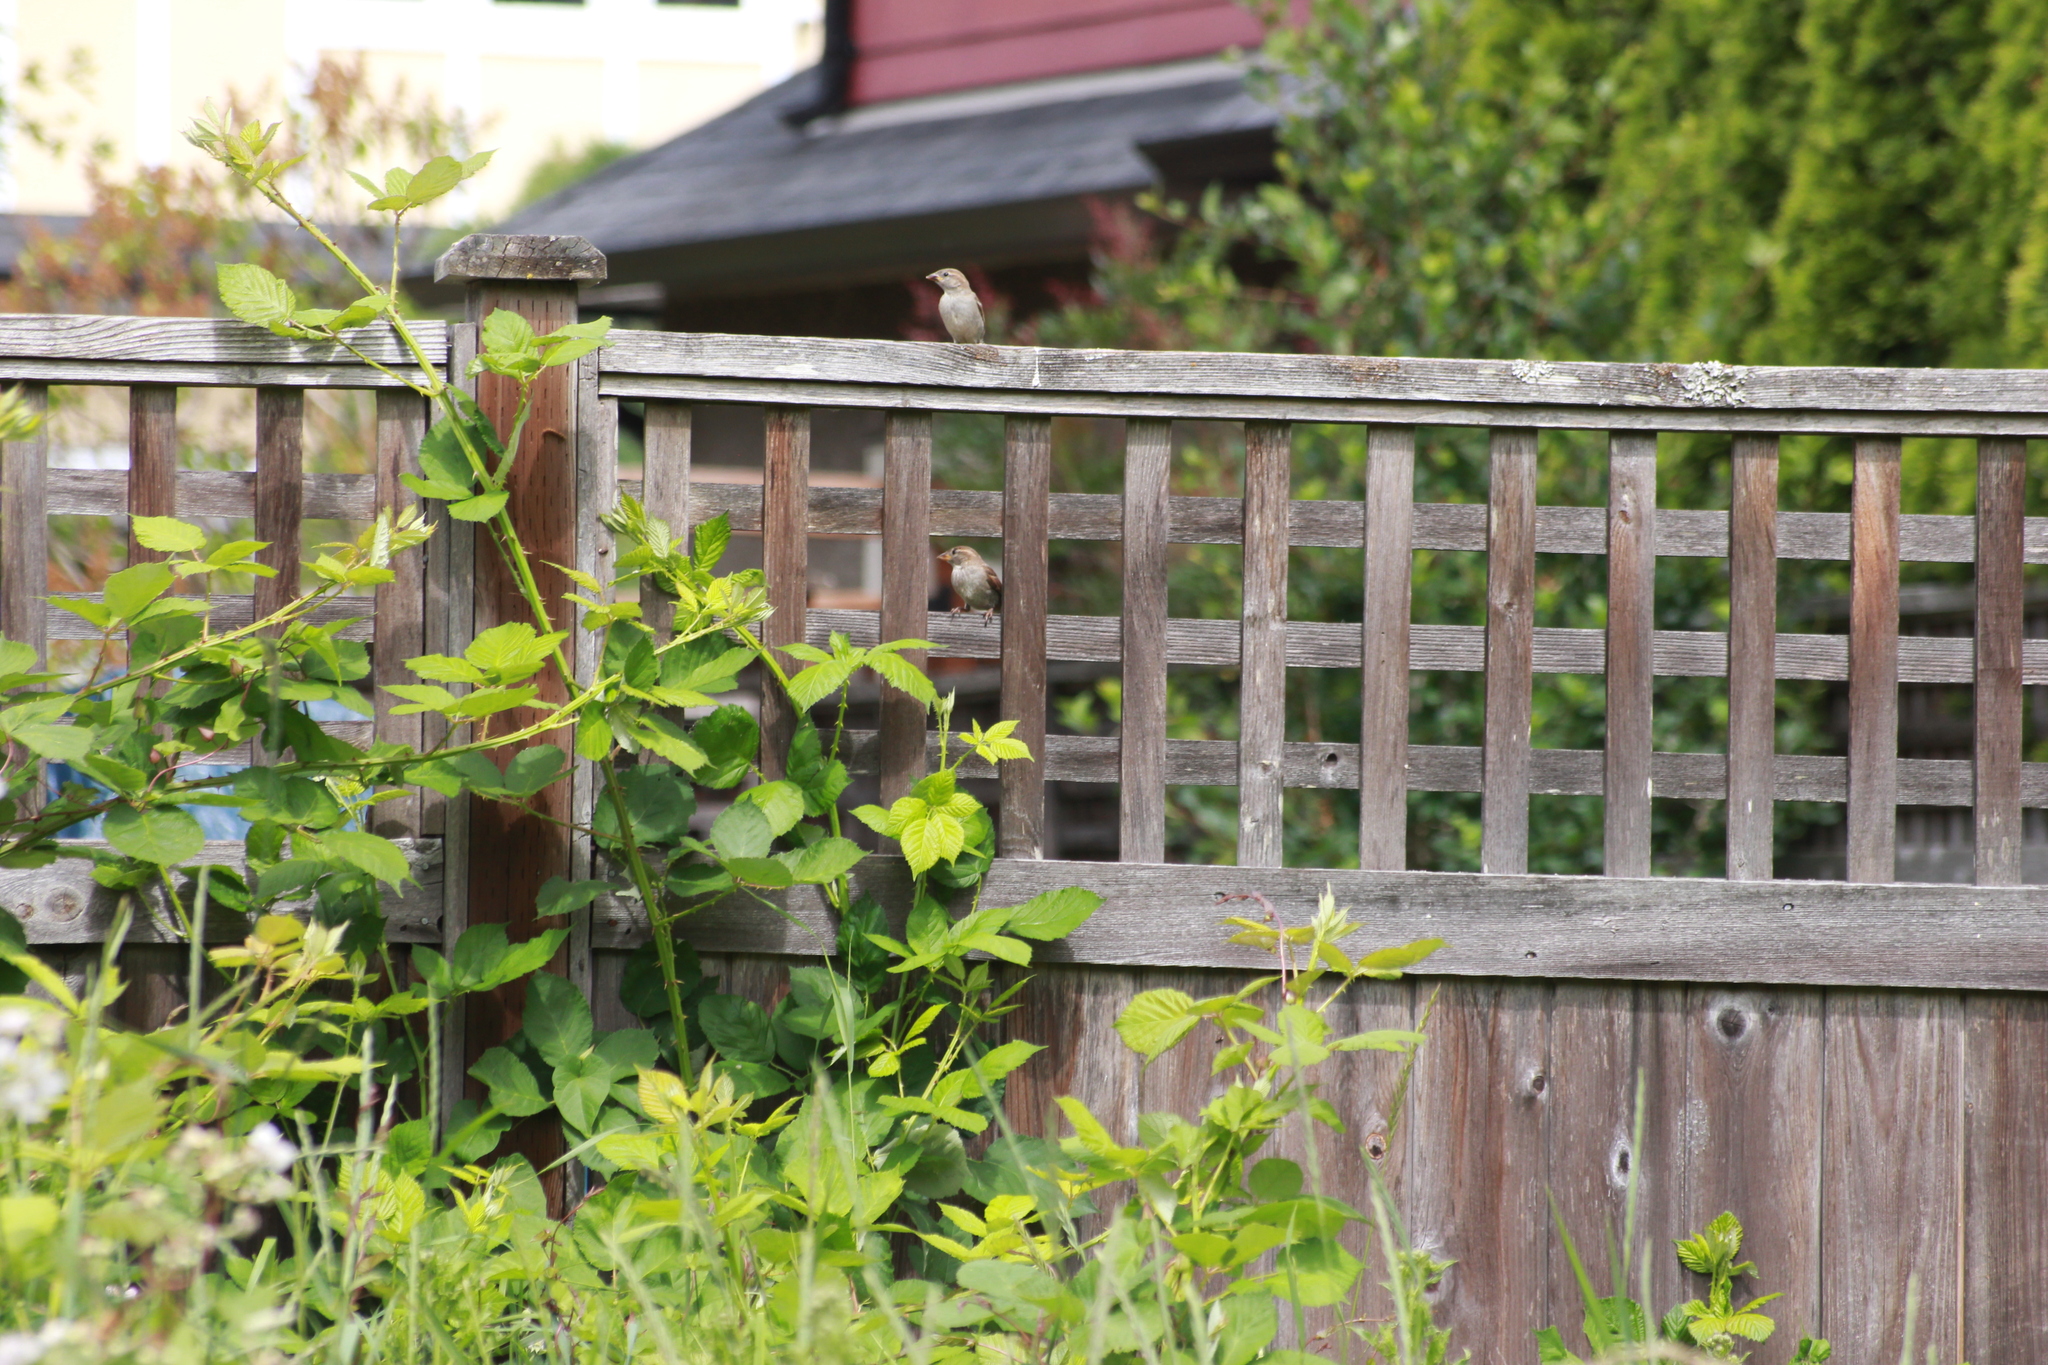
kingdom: Animalia
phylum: Chordata
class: Aves
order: Passeriformes
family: Passeridae
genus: Passer
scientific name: Passer domesticus
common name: House sparrow
